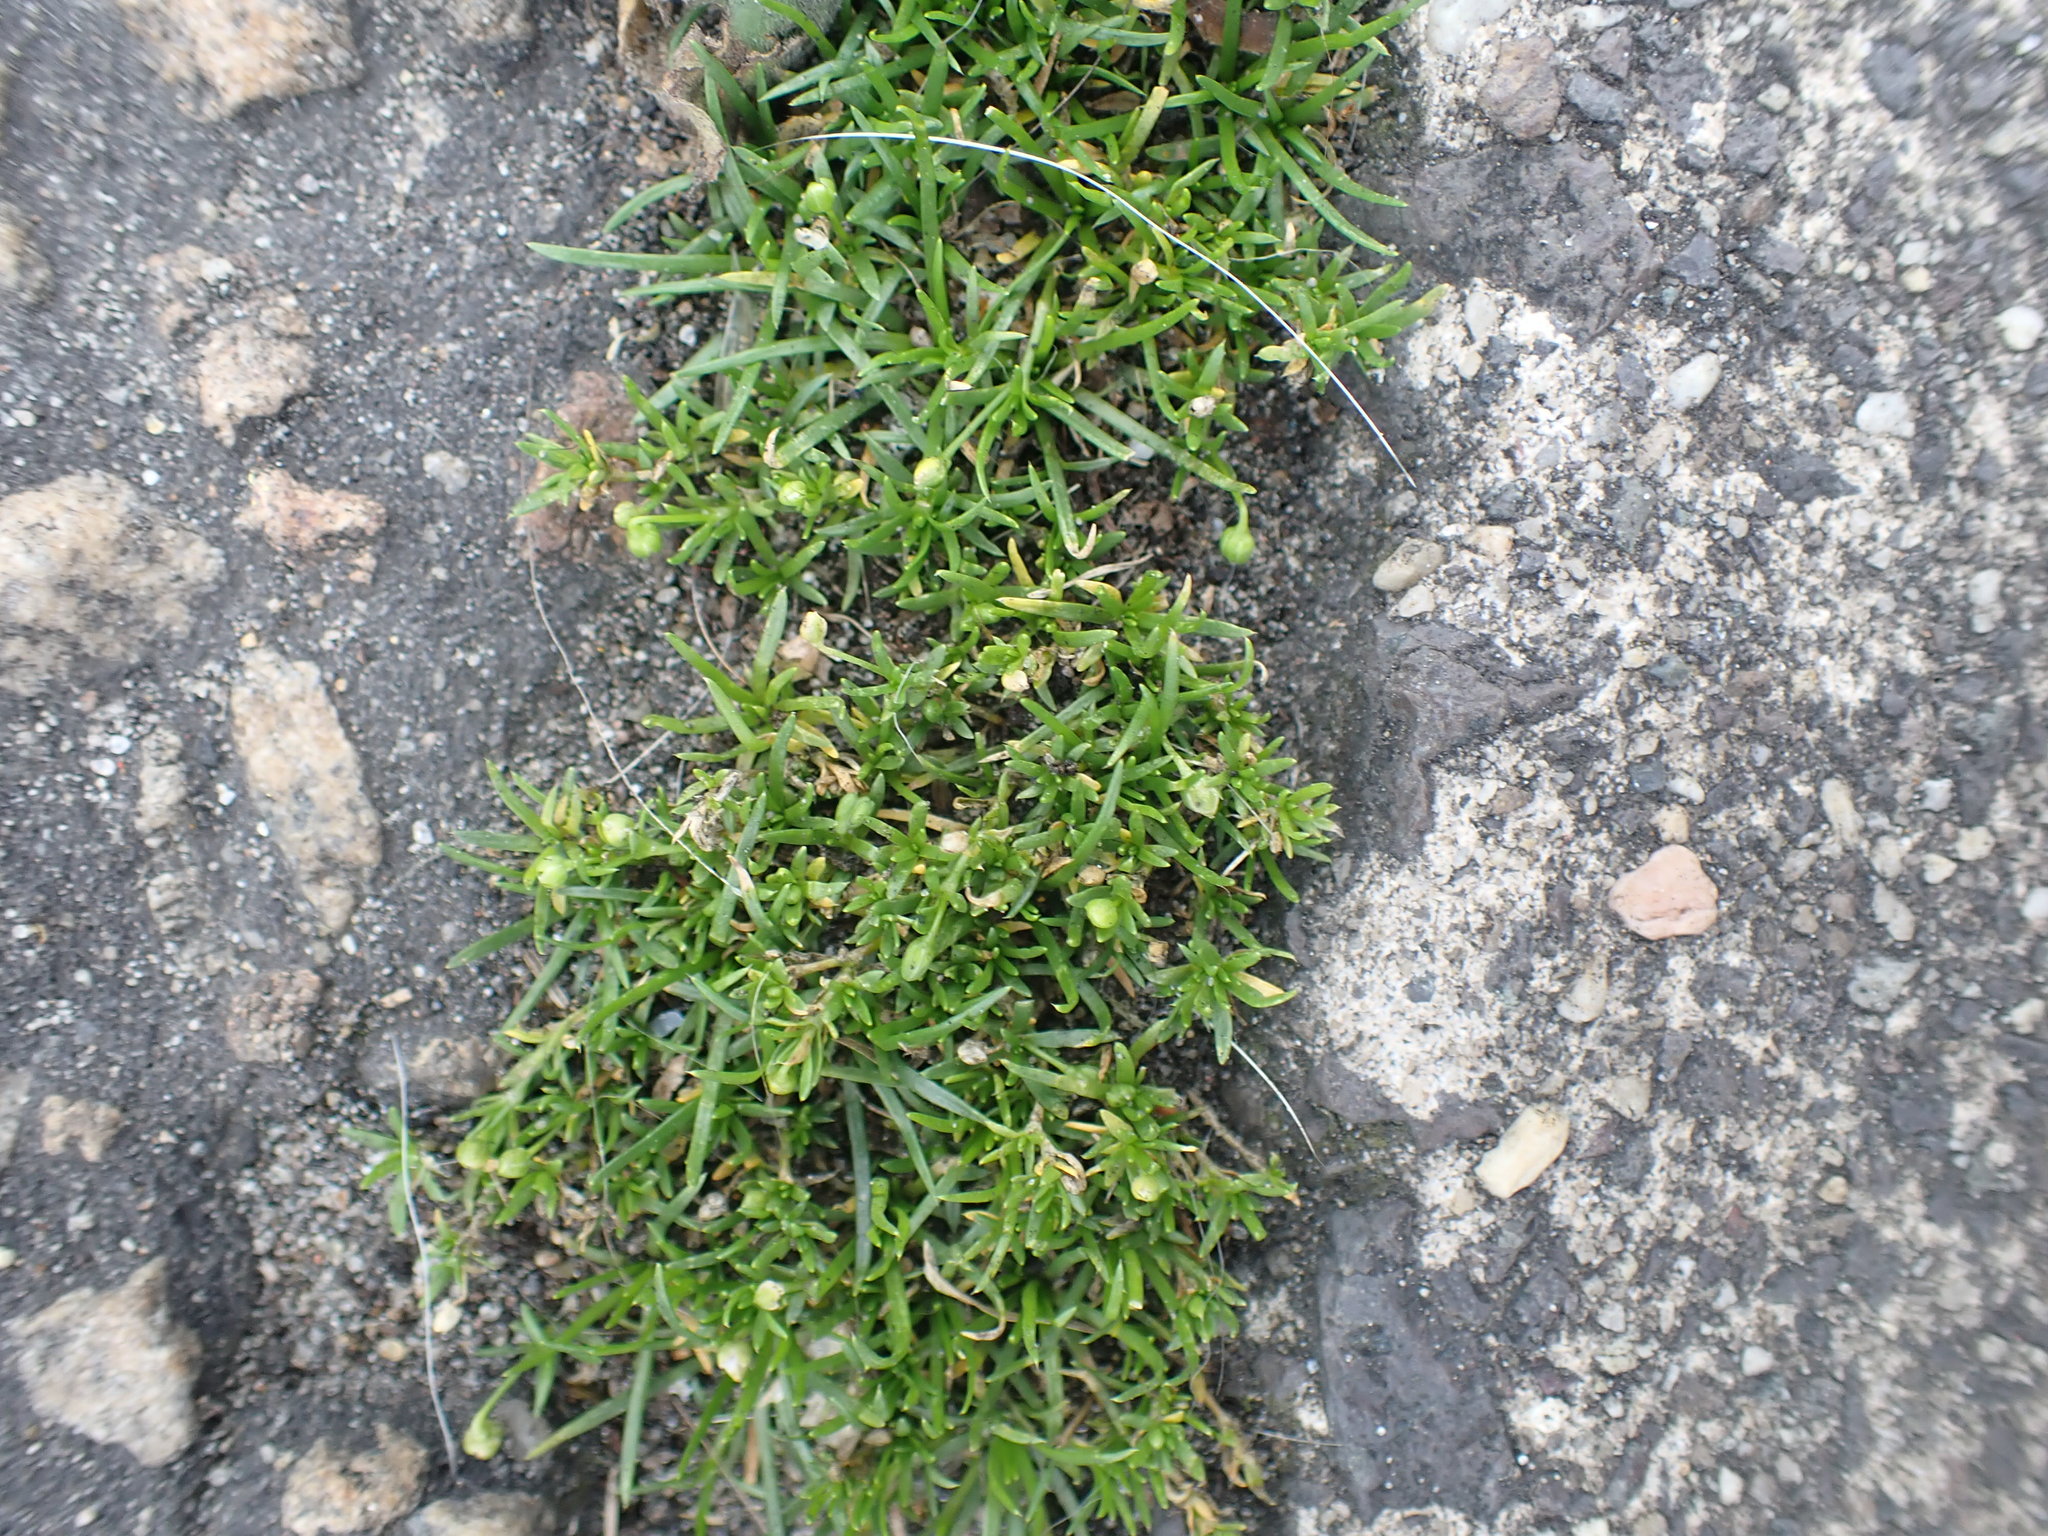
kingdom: Plantae
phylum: Tracheophyta
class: Magnoliopsida
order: Caryophyllales
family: Caryophyllaceae
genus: Sagina
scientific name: Sagina procumbens
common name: Procumbent pearlwort
